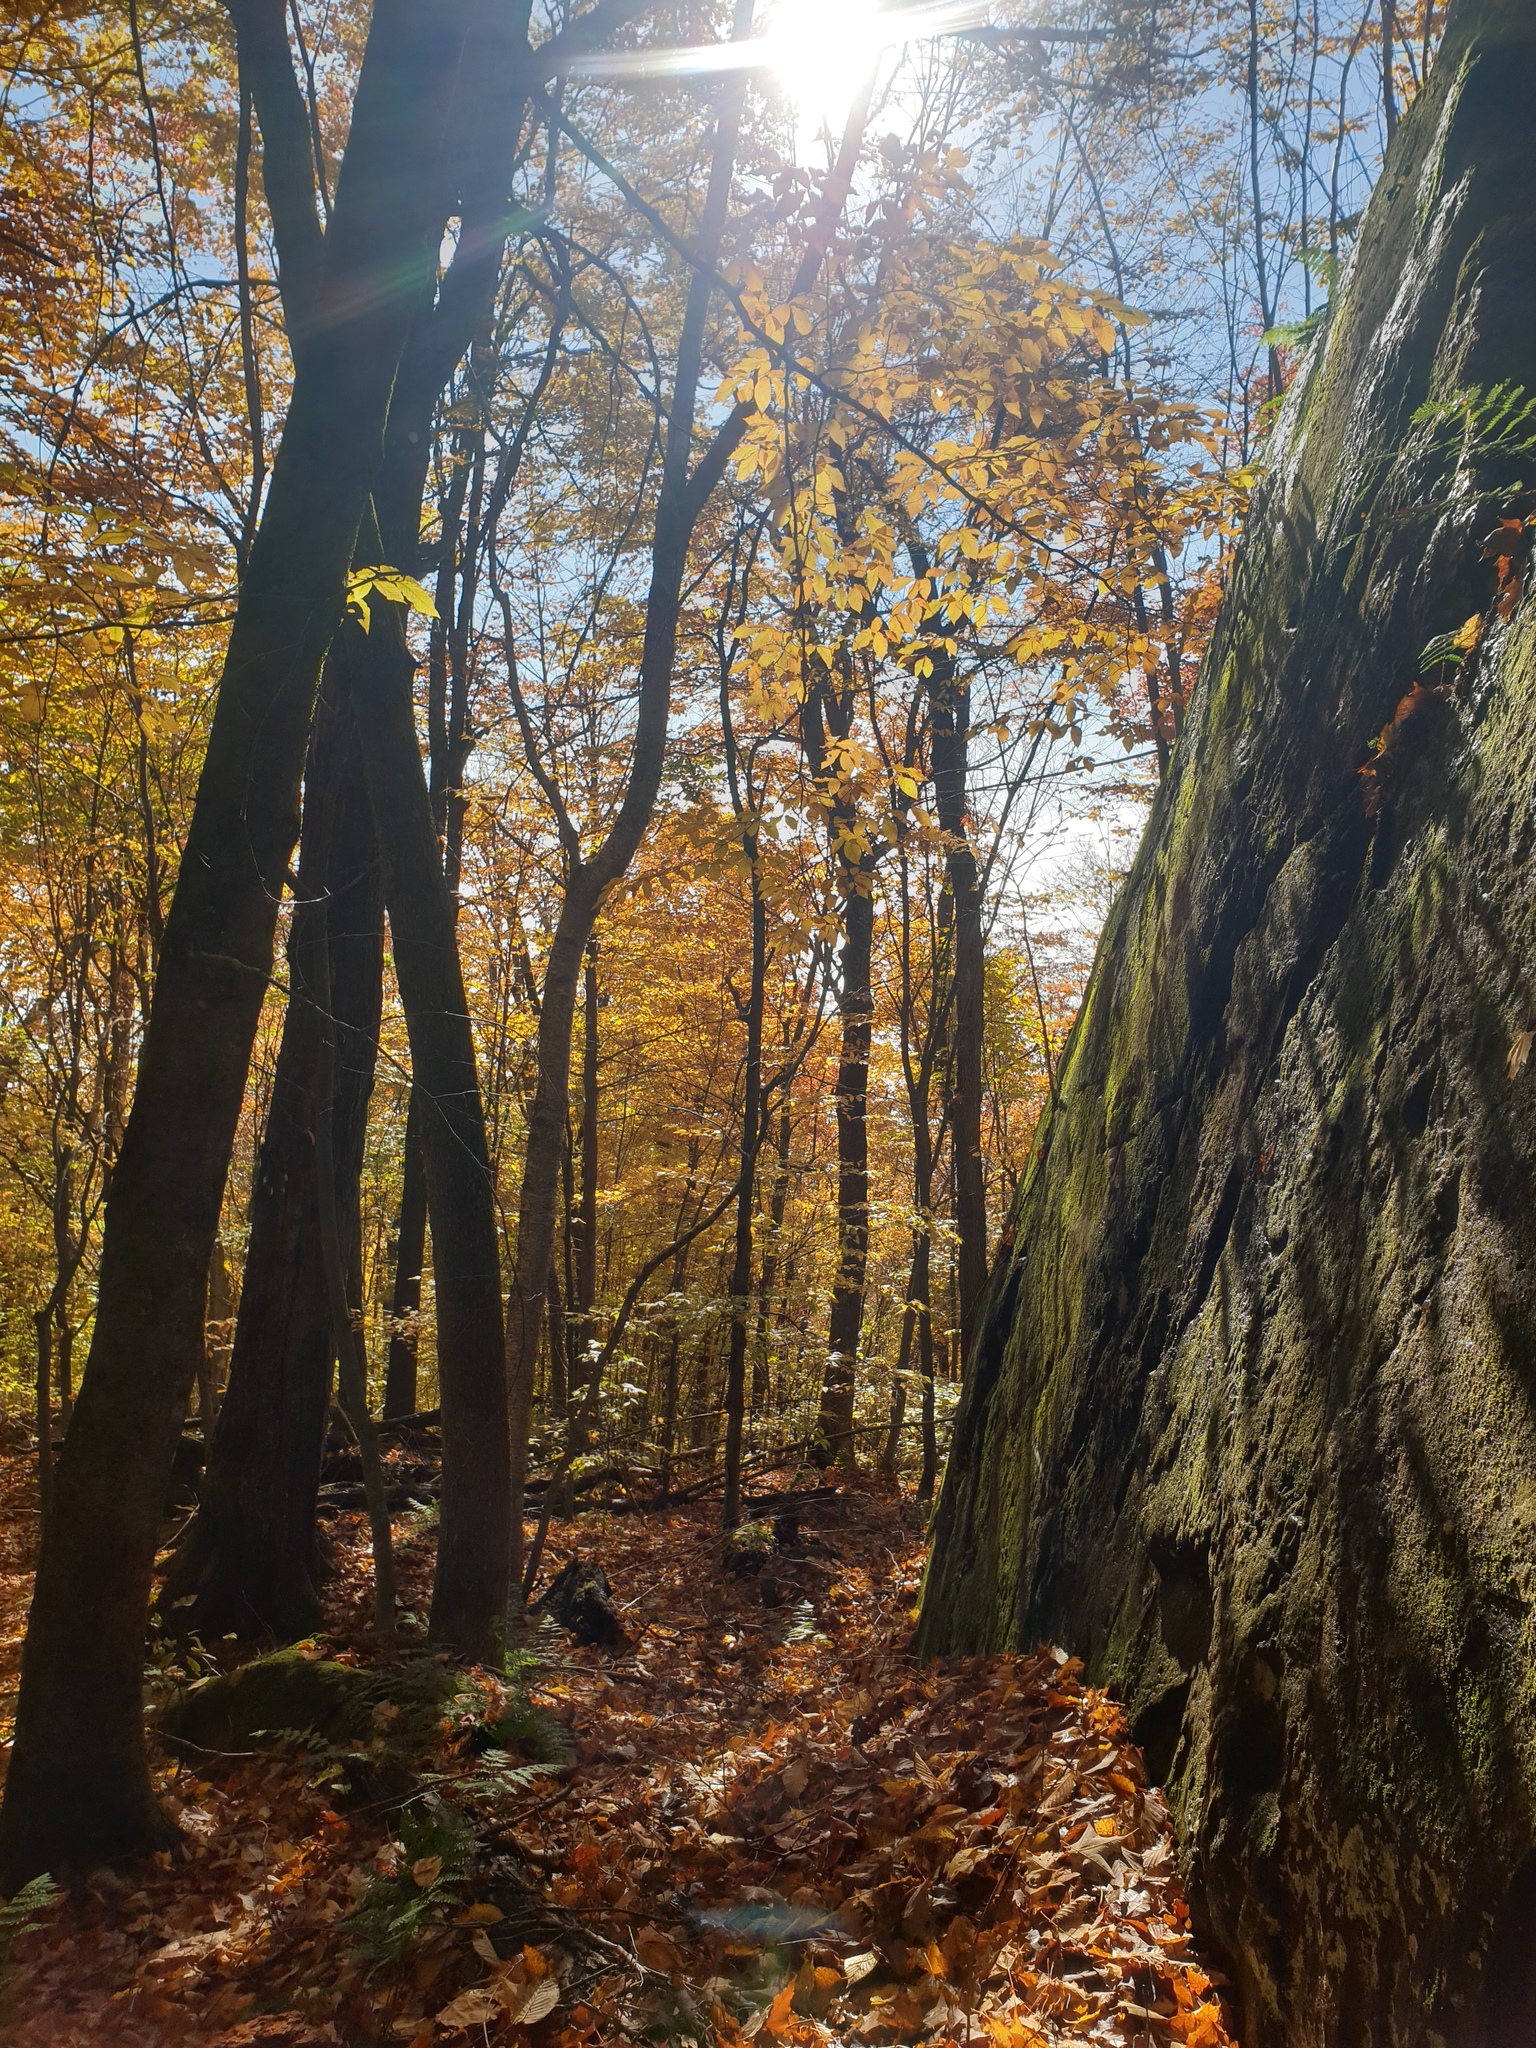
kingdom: Plantae
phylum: Tracheophyta
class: Polypodiopsida
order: Hymenophyllales
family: Hymenophyllaceae
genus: Crepidomanes
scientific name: Crepidomanes intricatum
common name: Weft fern
